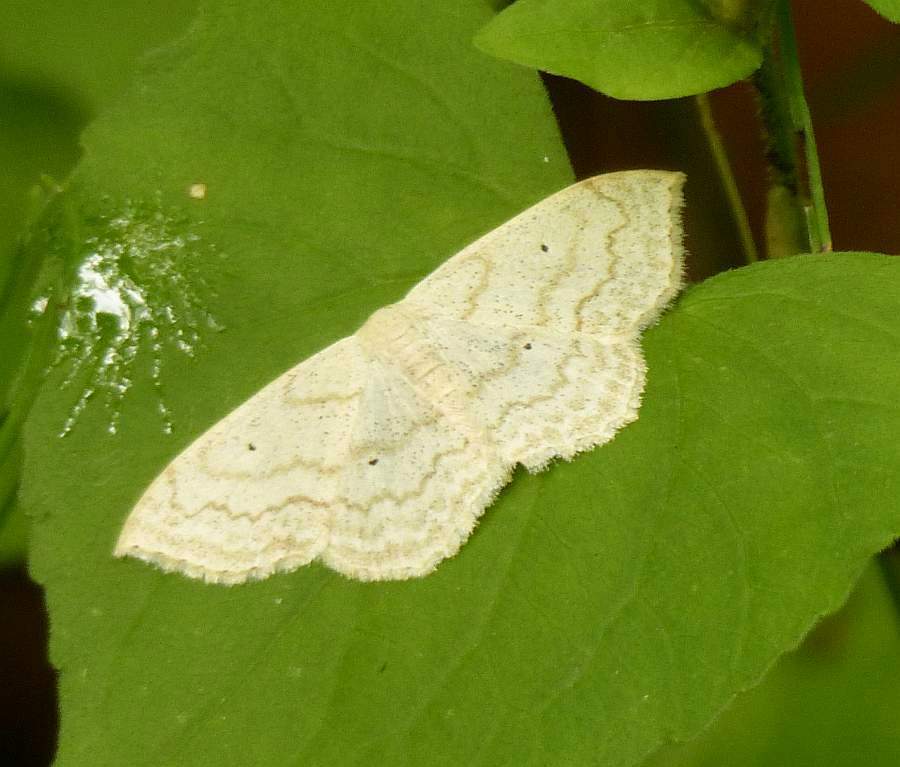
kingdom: Animalia
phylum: Arthropoda
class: Insecta
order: Lepidoptera
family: Geometridae
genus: Scopula
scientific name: Scopula limboundata
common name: Large lace border
